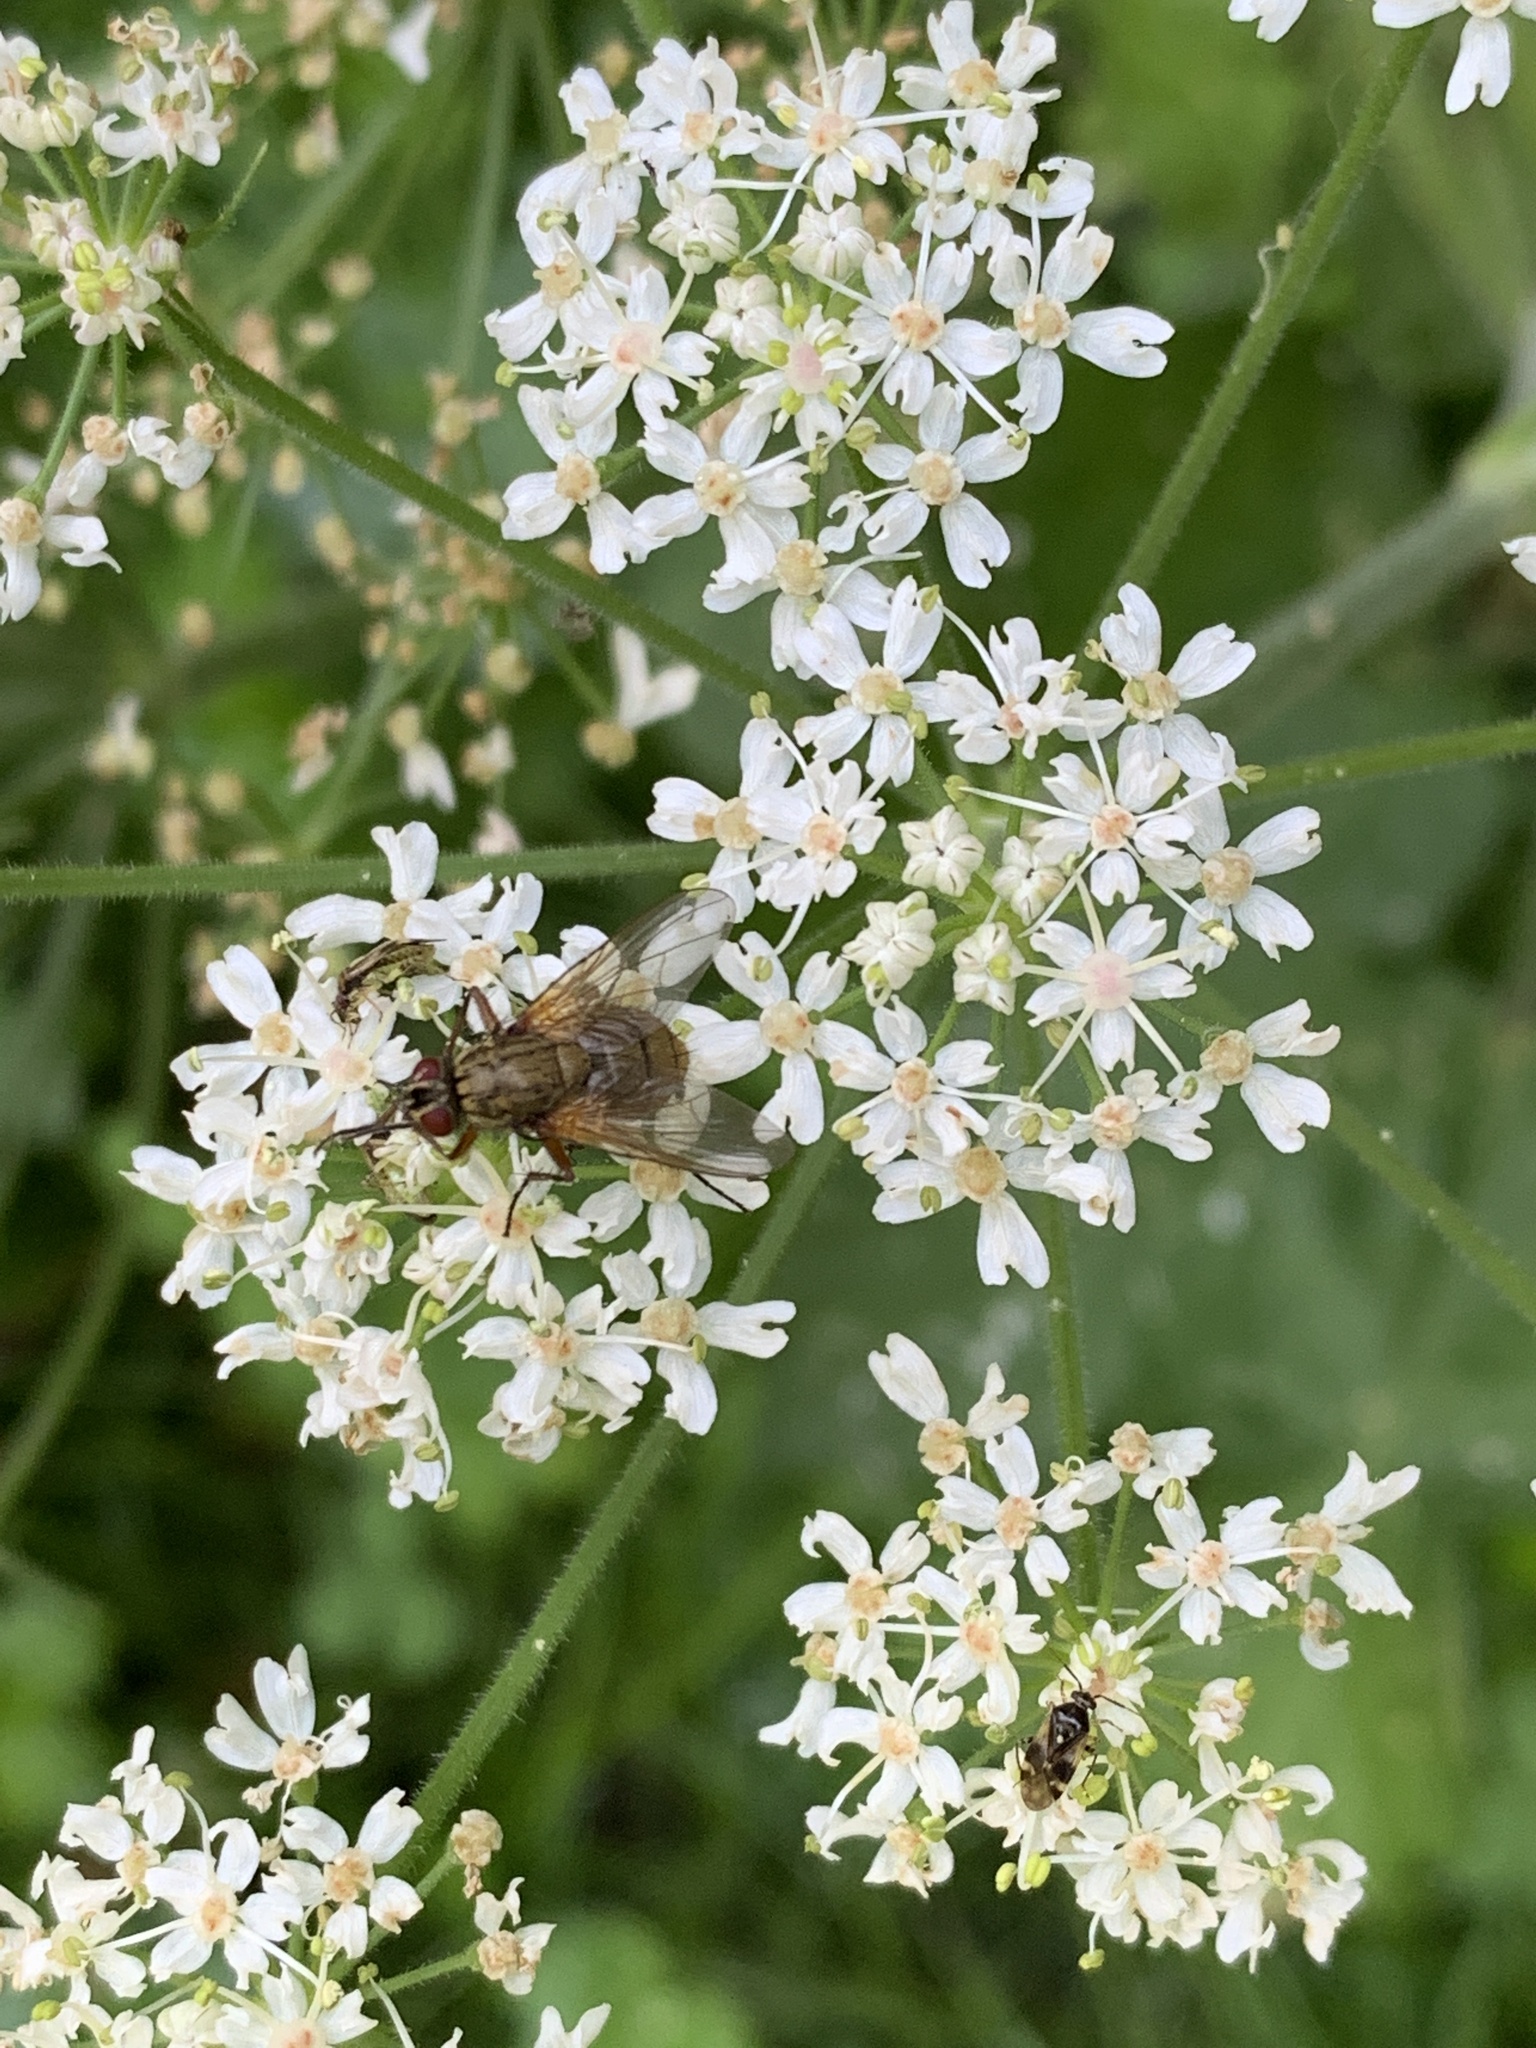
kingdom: Plantae
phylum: Tracheophyta
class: Magnoliopsida
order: Apiales
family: Apiaceae
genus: Heracleum
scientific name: Heracleum sphondylium
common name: Hogweed
